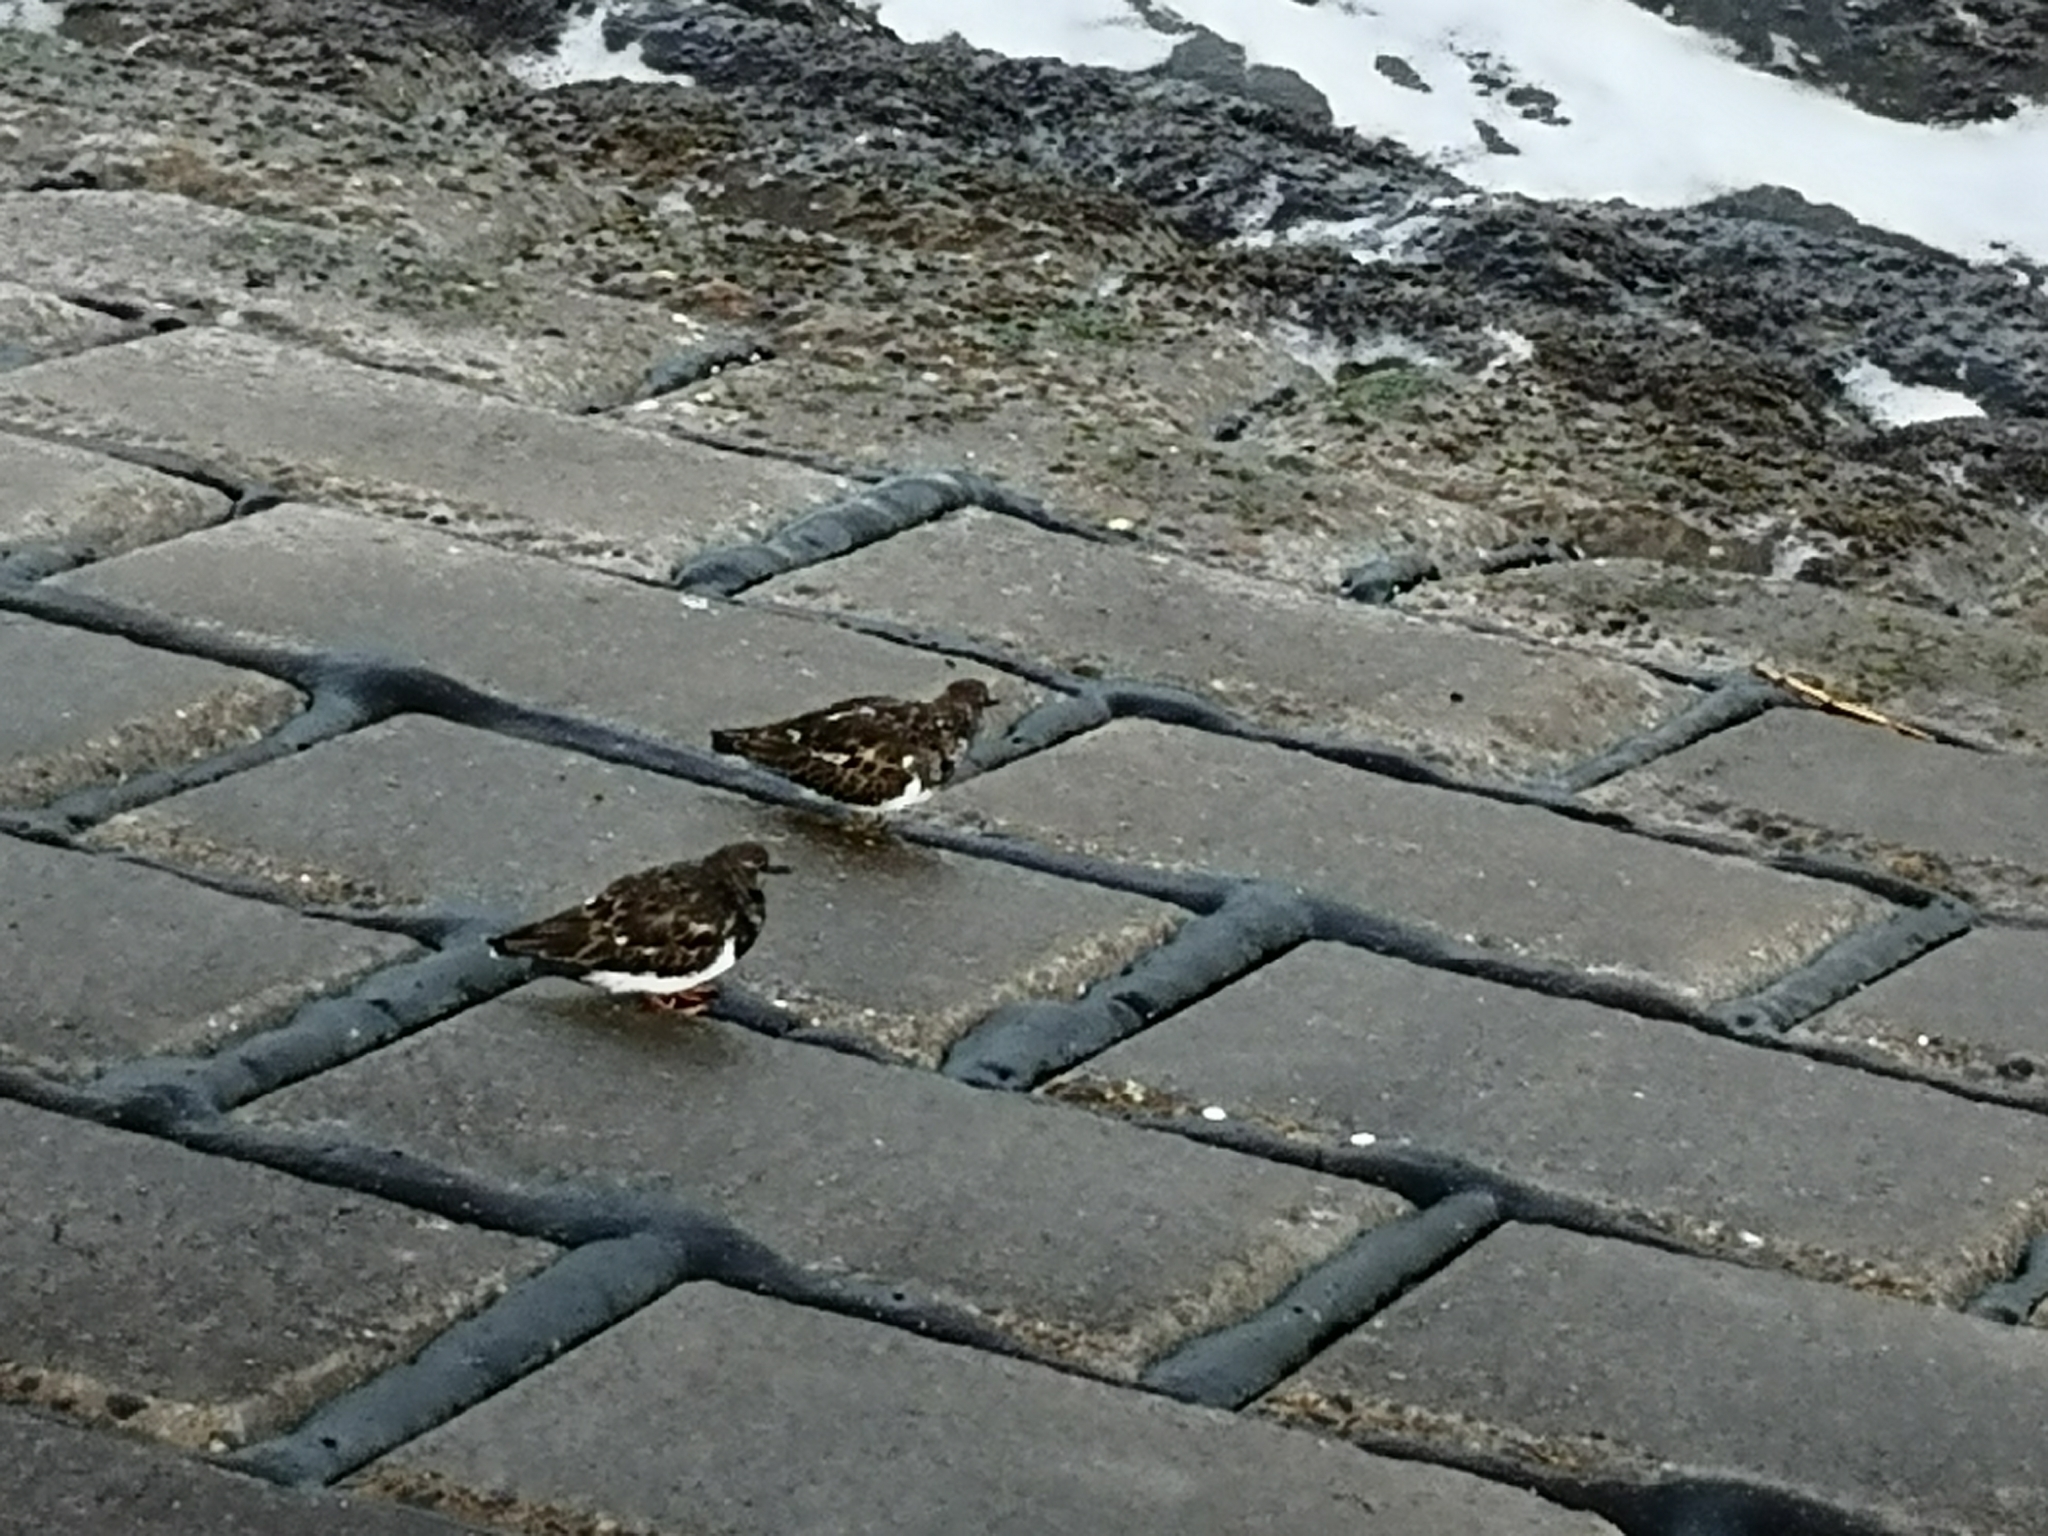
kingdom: Animalia
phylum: Chordata
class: Aves
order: Charadriiformes
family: Scolopacidae
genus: Arenaria
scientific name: Arenaria interpres
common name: Ruddy turnstone
